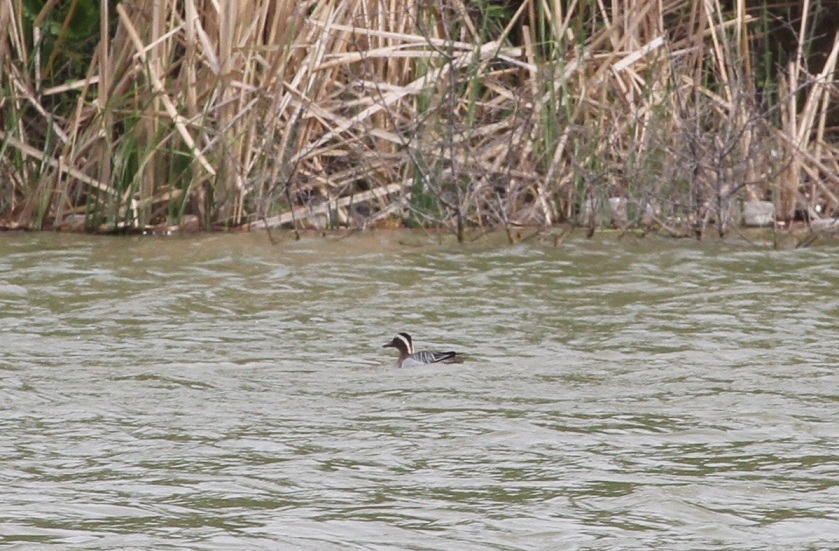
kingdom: Animalia
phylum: Chordata
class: Aves
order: Anseriformes
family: Anatidae
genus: Spatula
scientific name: Spatula querquedula
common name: Garganey
